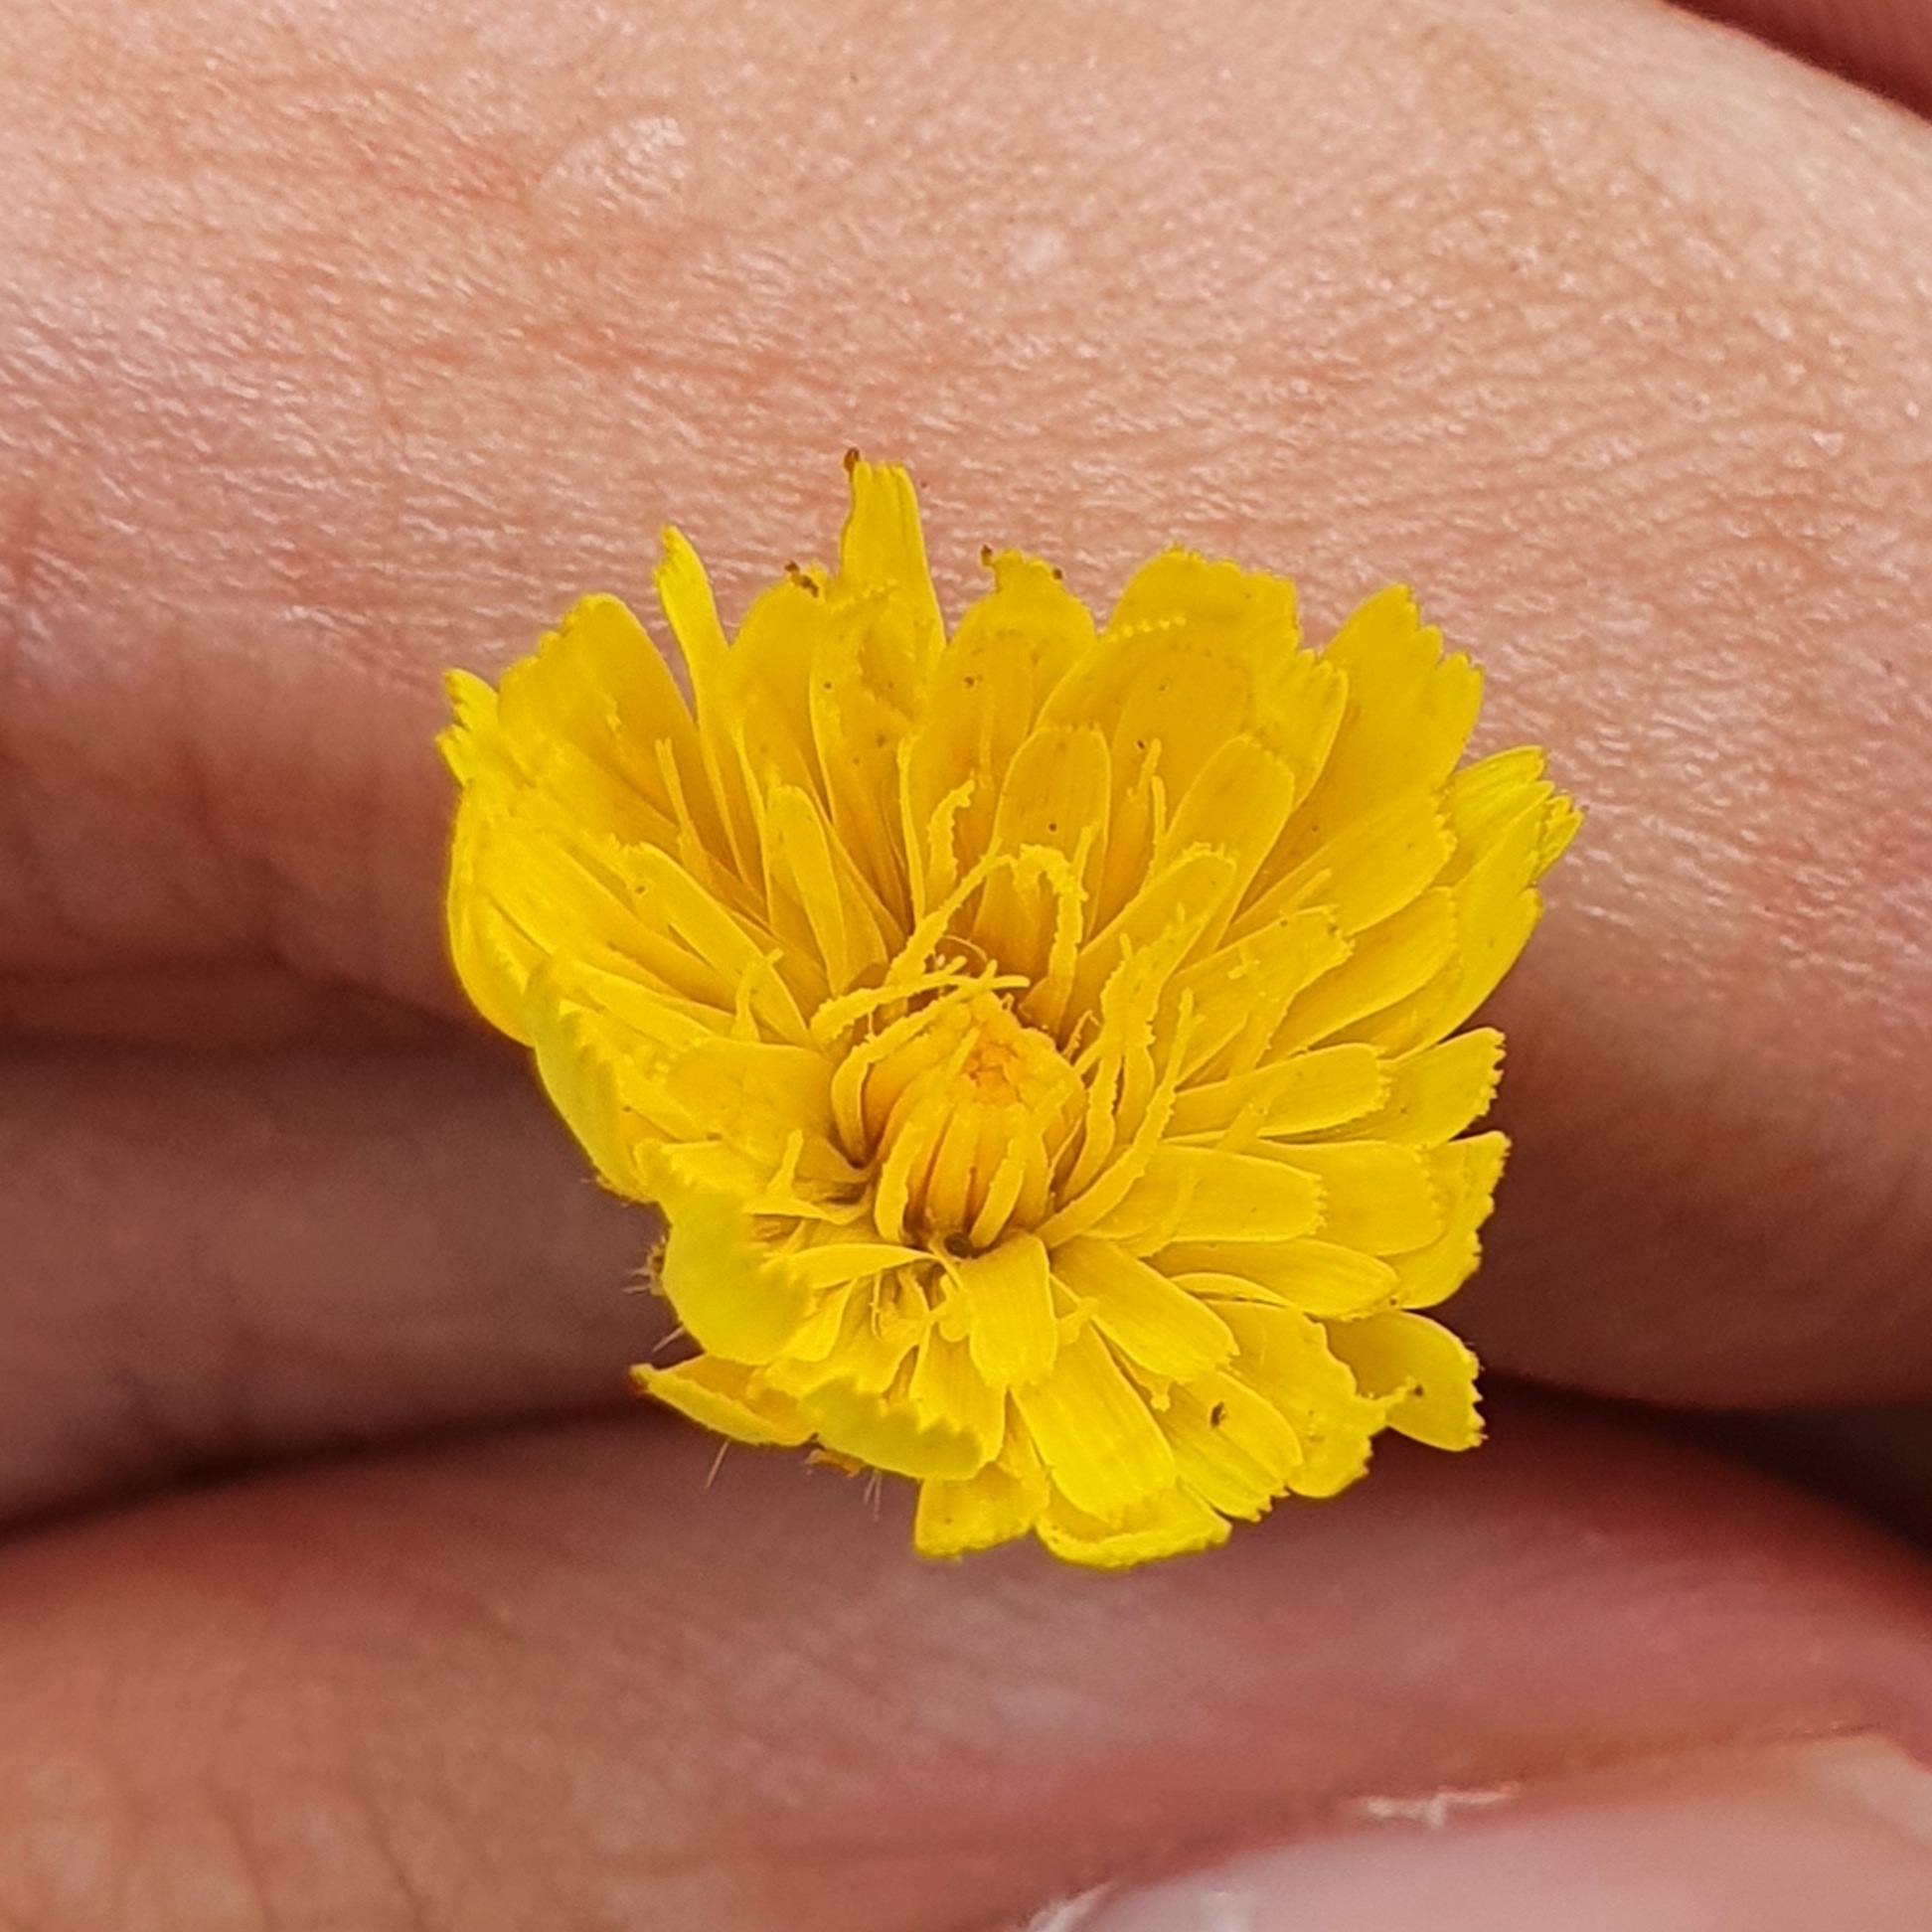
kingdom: Plantae
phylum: Tracheophyta
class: Magnoliopsida
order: Asterales
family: Asteraceae
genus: Achyrophorus
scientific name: Achyrophorus laevigatus
